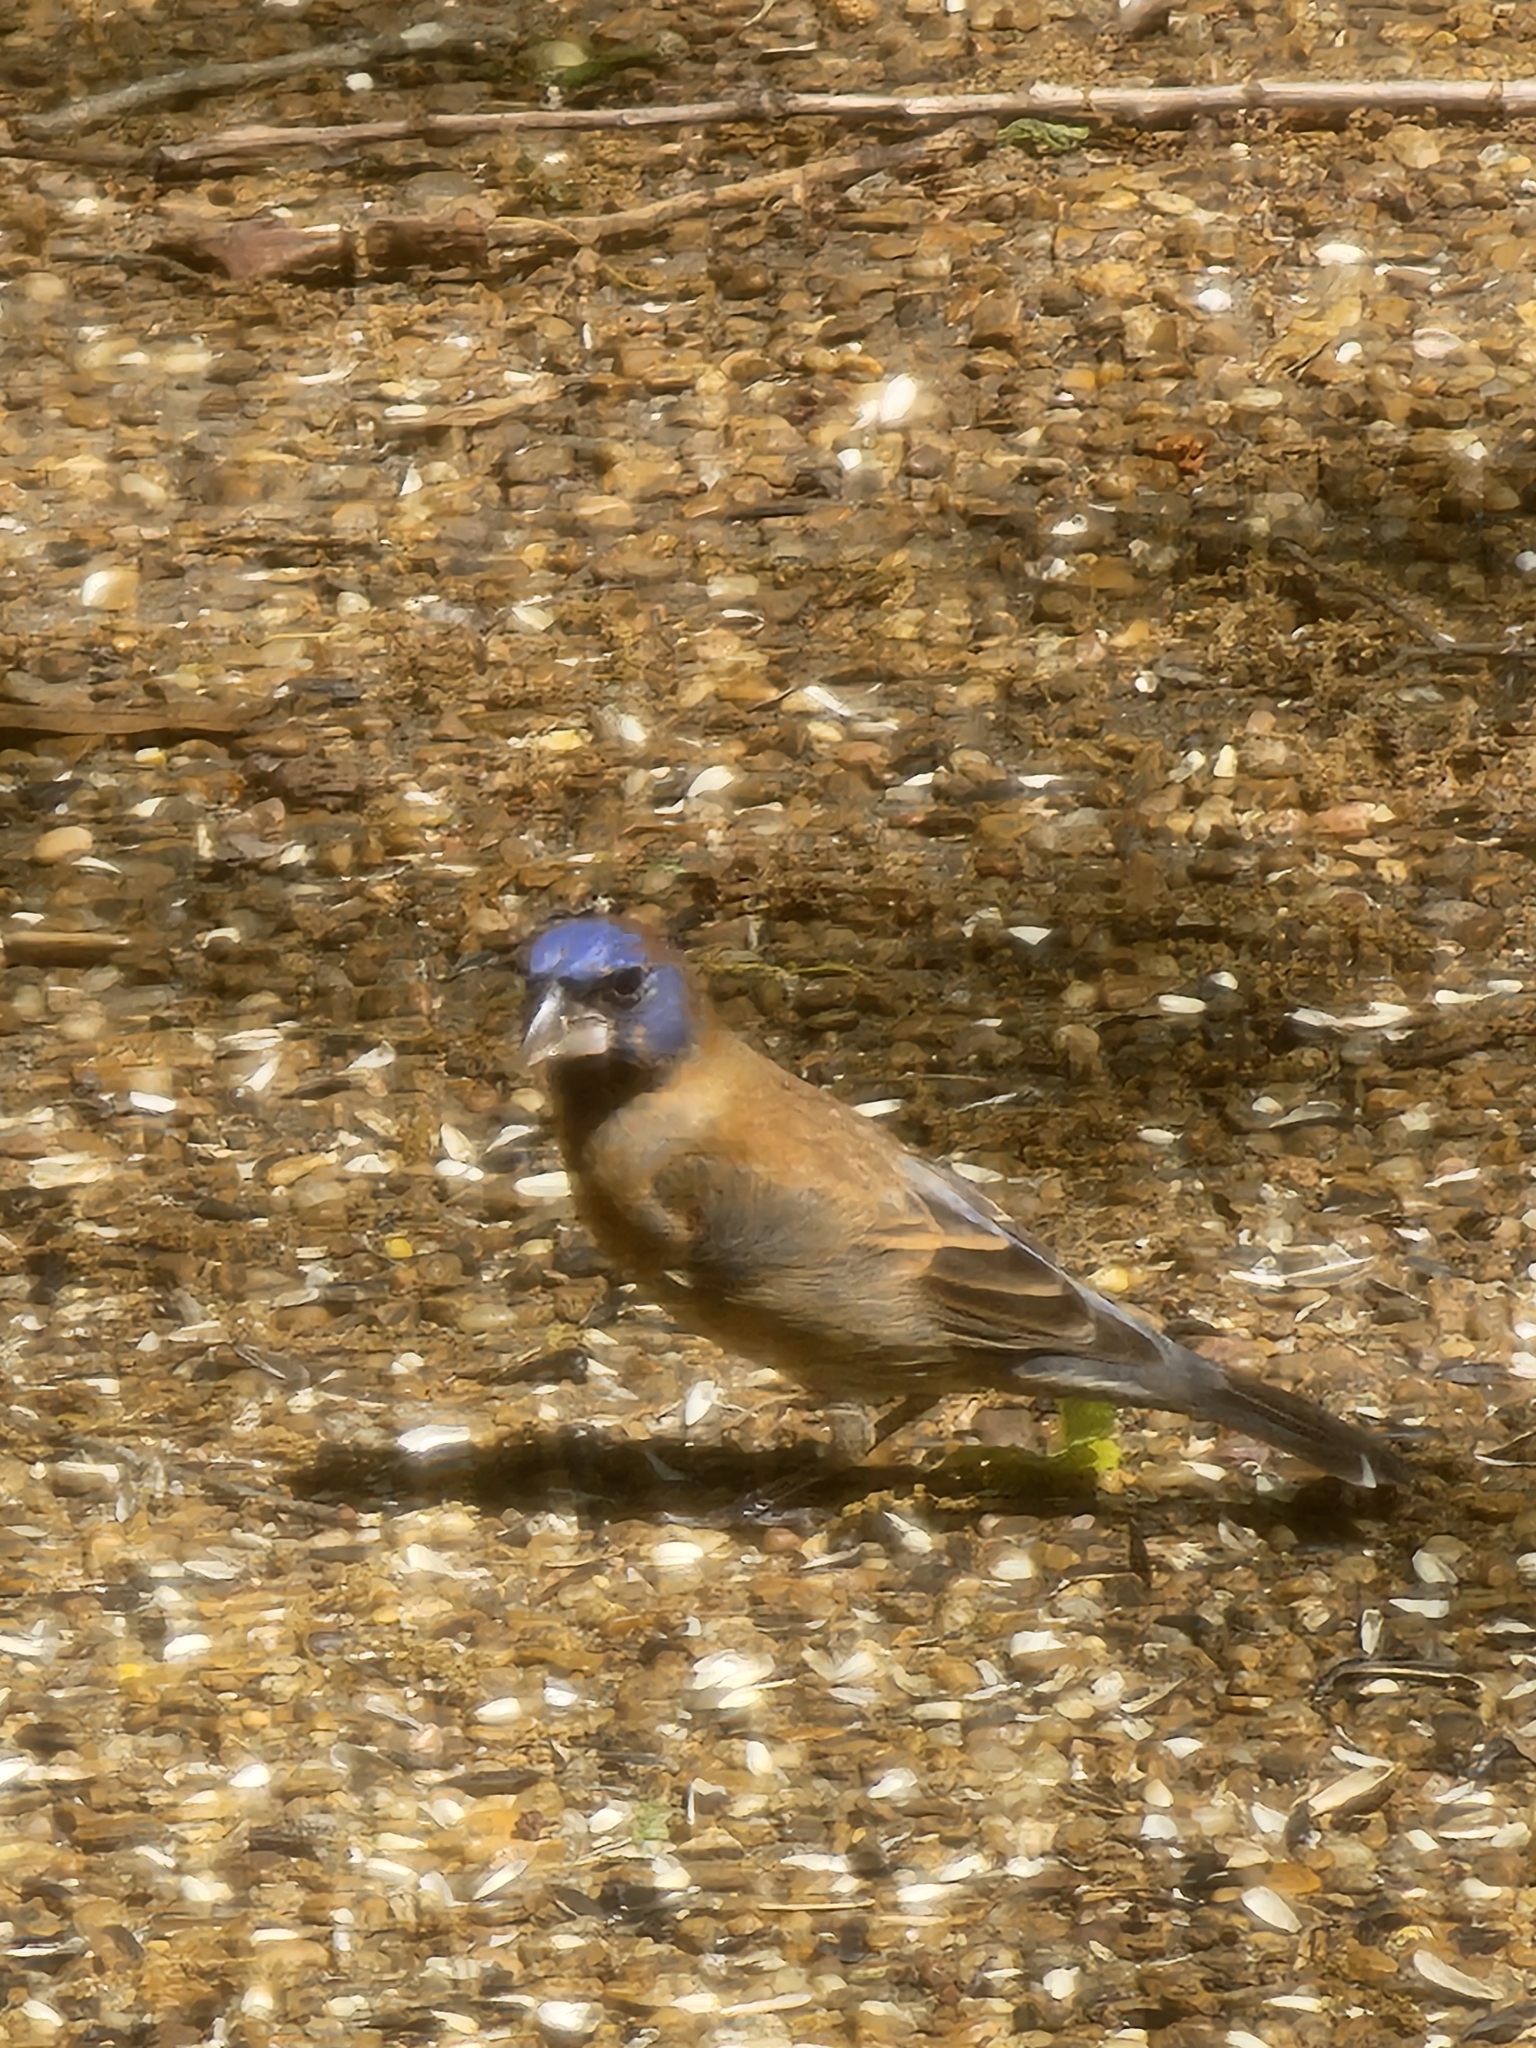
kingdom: Animalia
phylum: Chordata
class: Aves
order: Passeriformes
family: Cardinalidae
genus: Passerina
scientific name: Passerina caerulea
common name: Blue grosbeak
